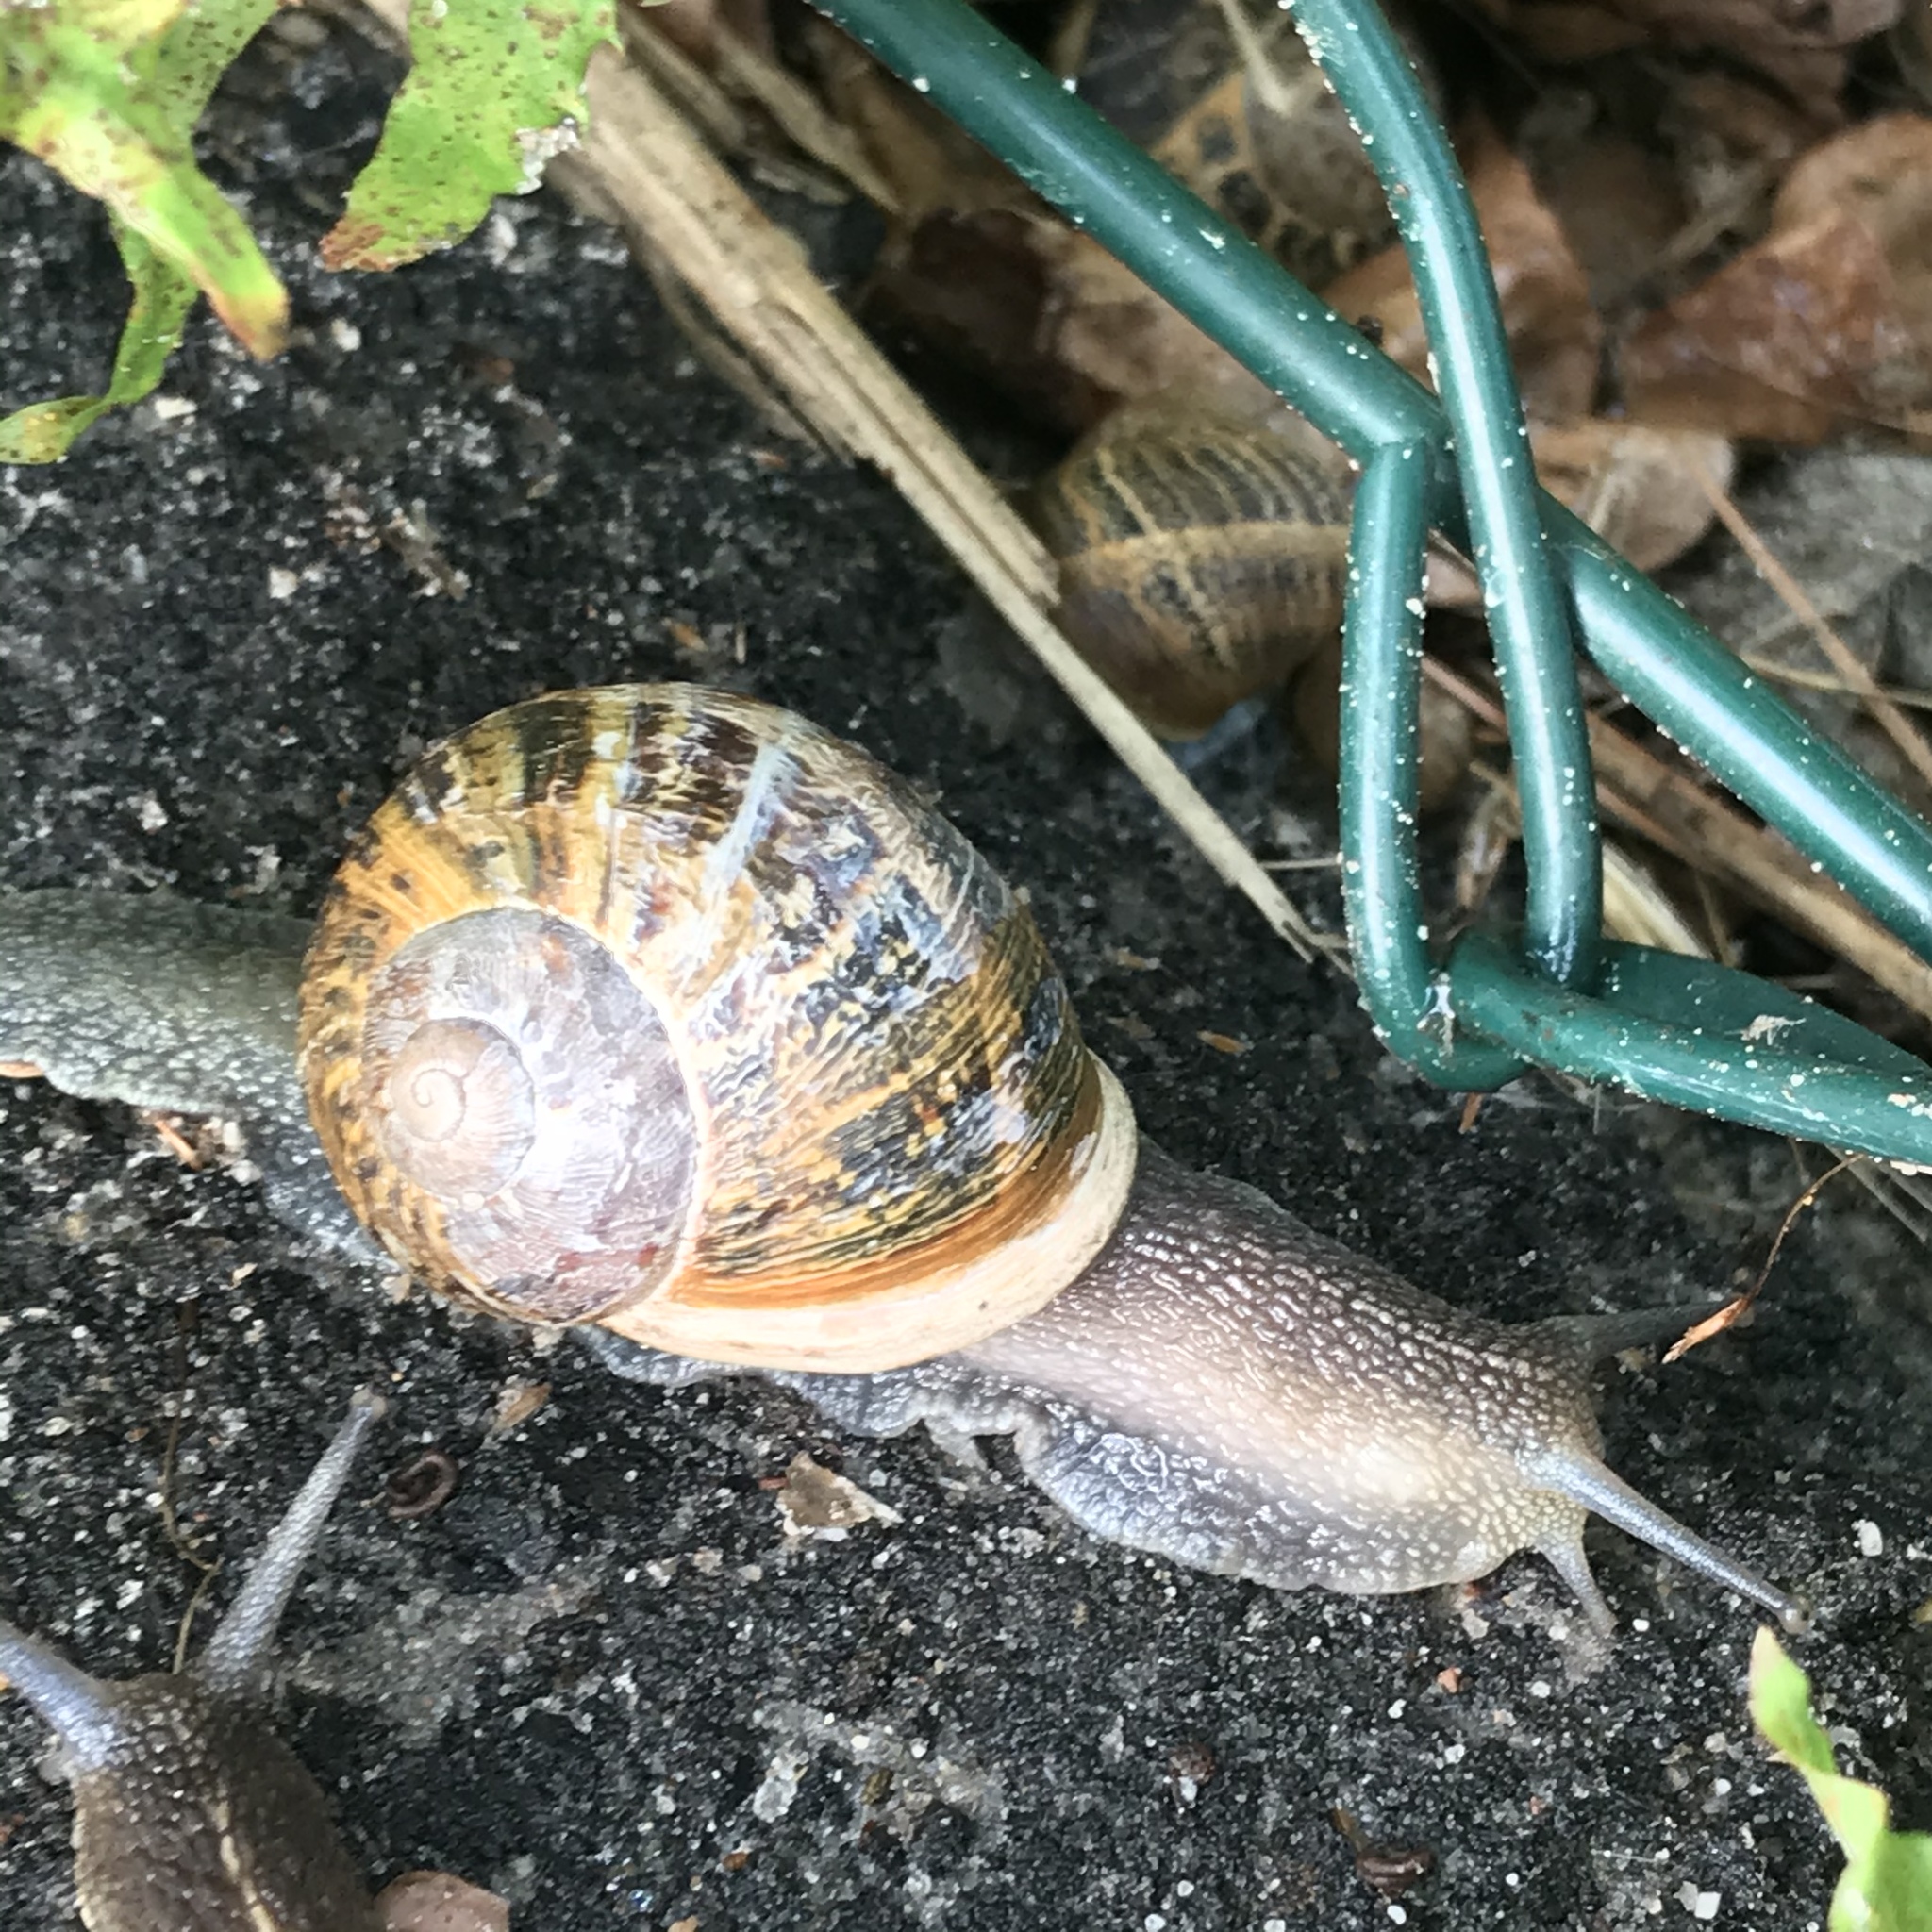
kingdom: Animalia
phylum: Mollusca
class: Gastropoda
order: Stylommatophora
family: Helicidae
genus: Cornu
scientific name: Cornu aspersum
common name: Brown garden snail
